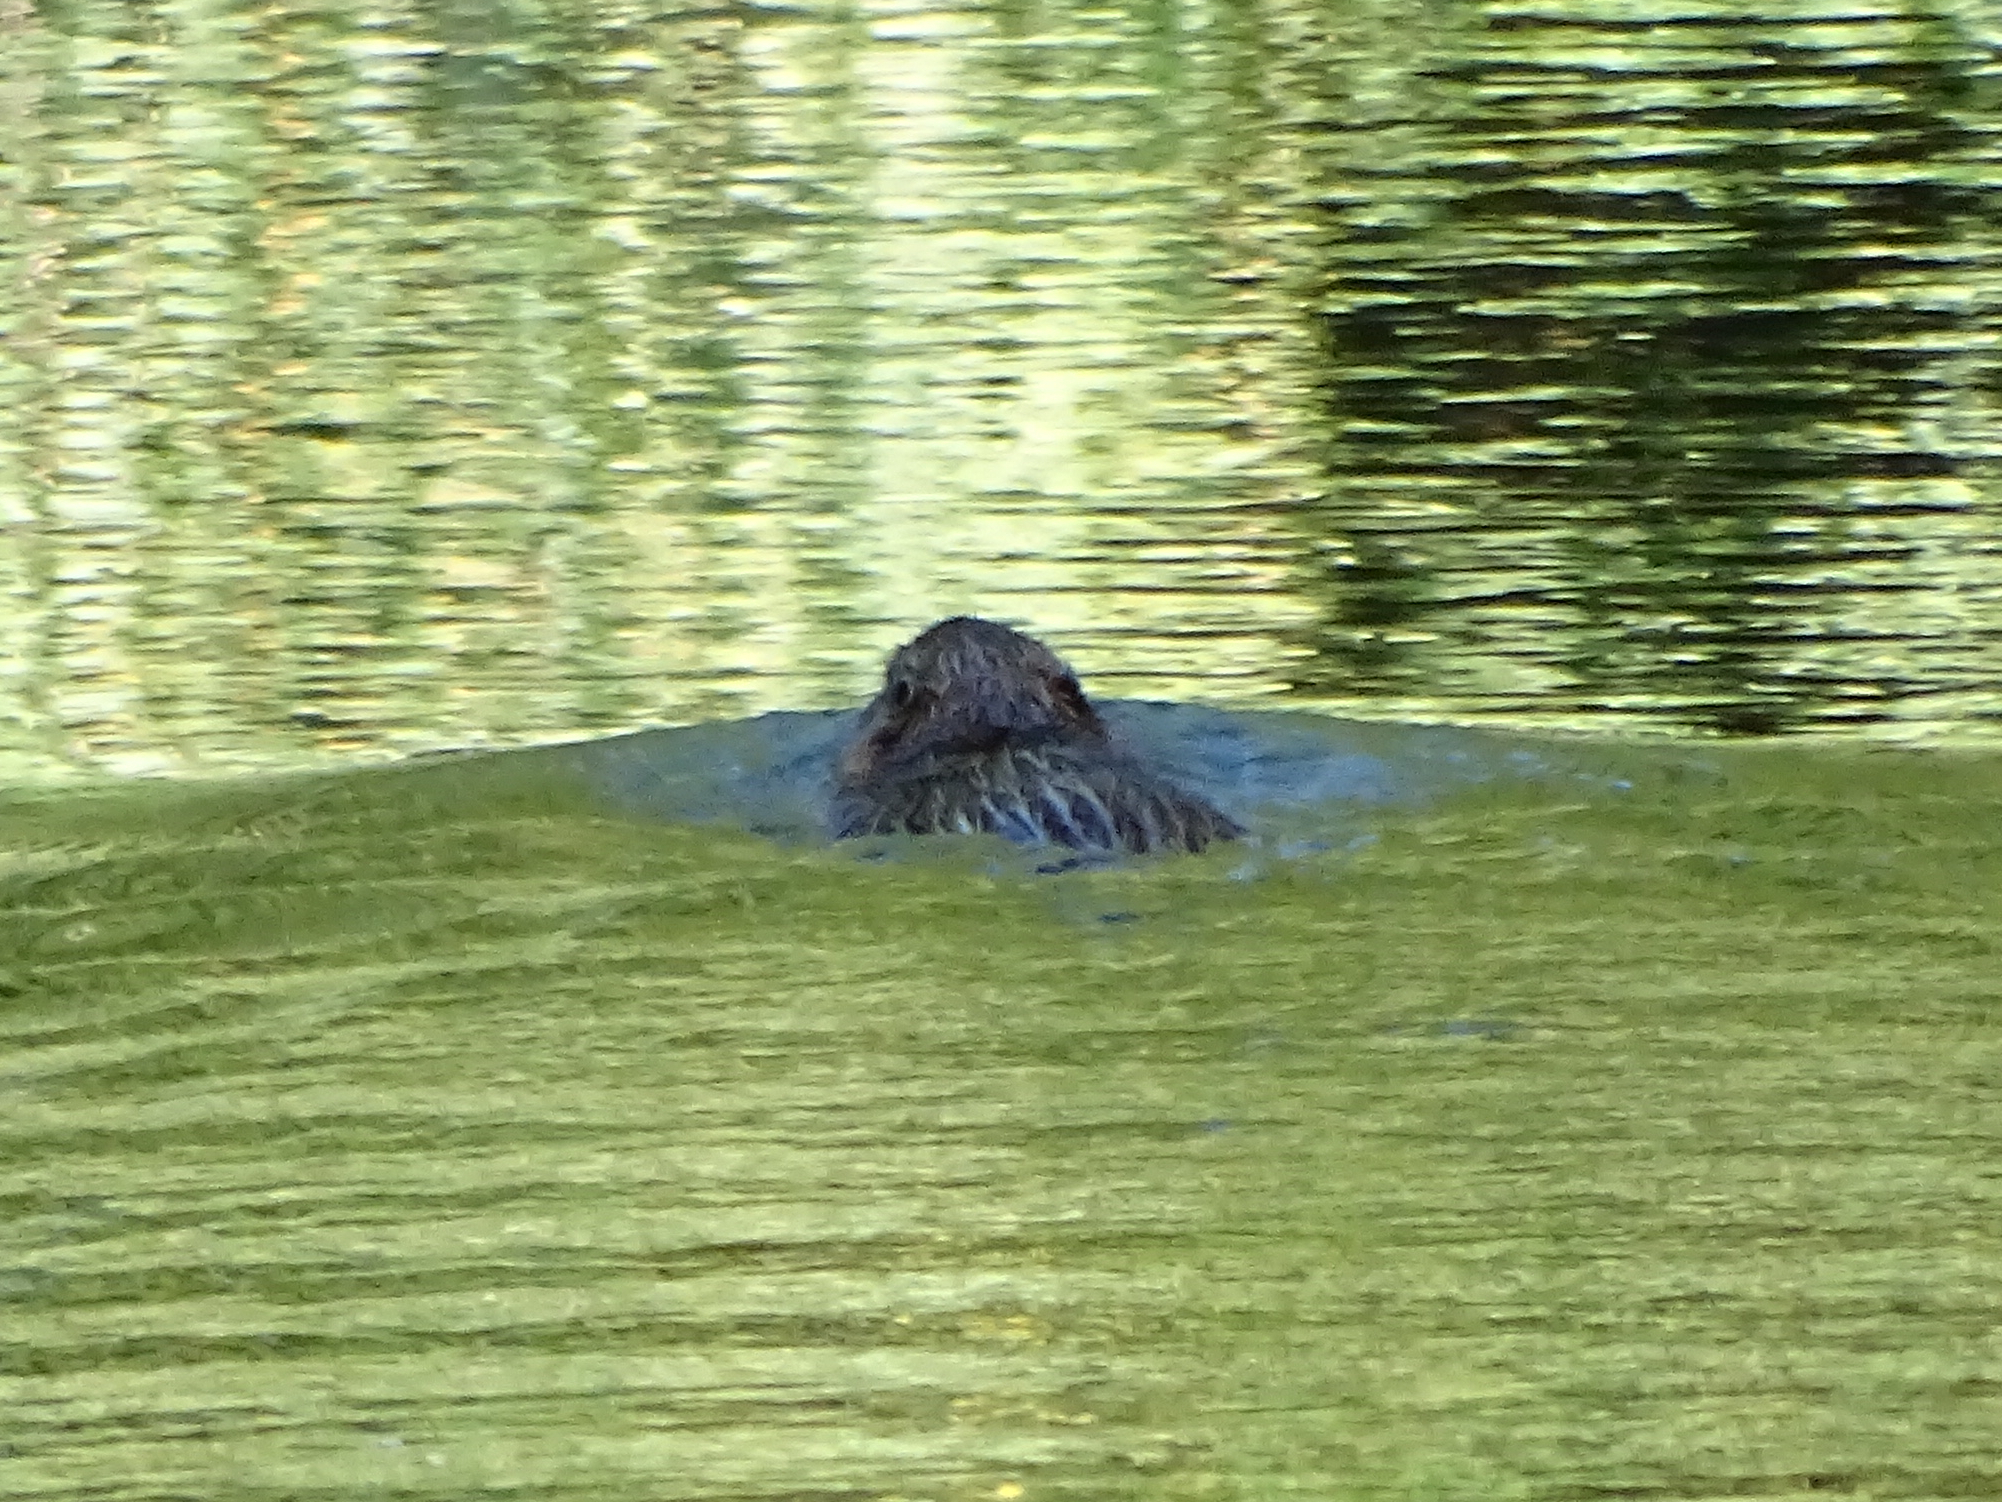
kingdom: Animalia
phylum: Chordata
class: Mammalia
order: Rodentia
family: Myocastoridae
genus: Myocastor
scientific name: Myocastor coypus
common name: Coypu
